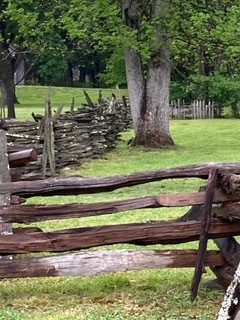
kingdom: Animalia
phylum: Chordata
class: Aves
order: Piciformes
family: Picidae
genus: Dryocopus
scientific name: Dryocopus pileatus
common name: Pileated woodpecker
